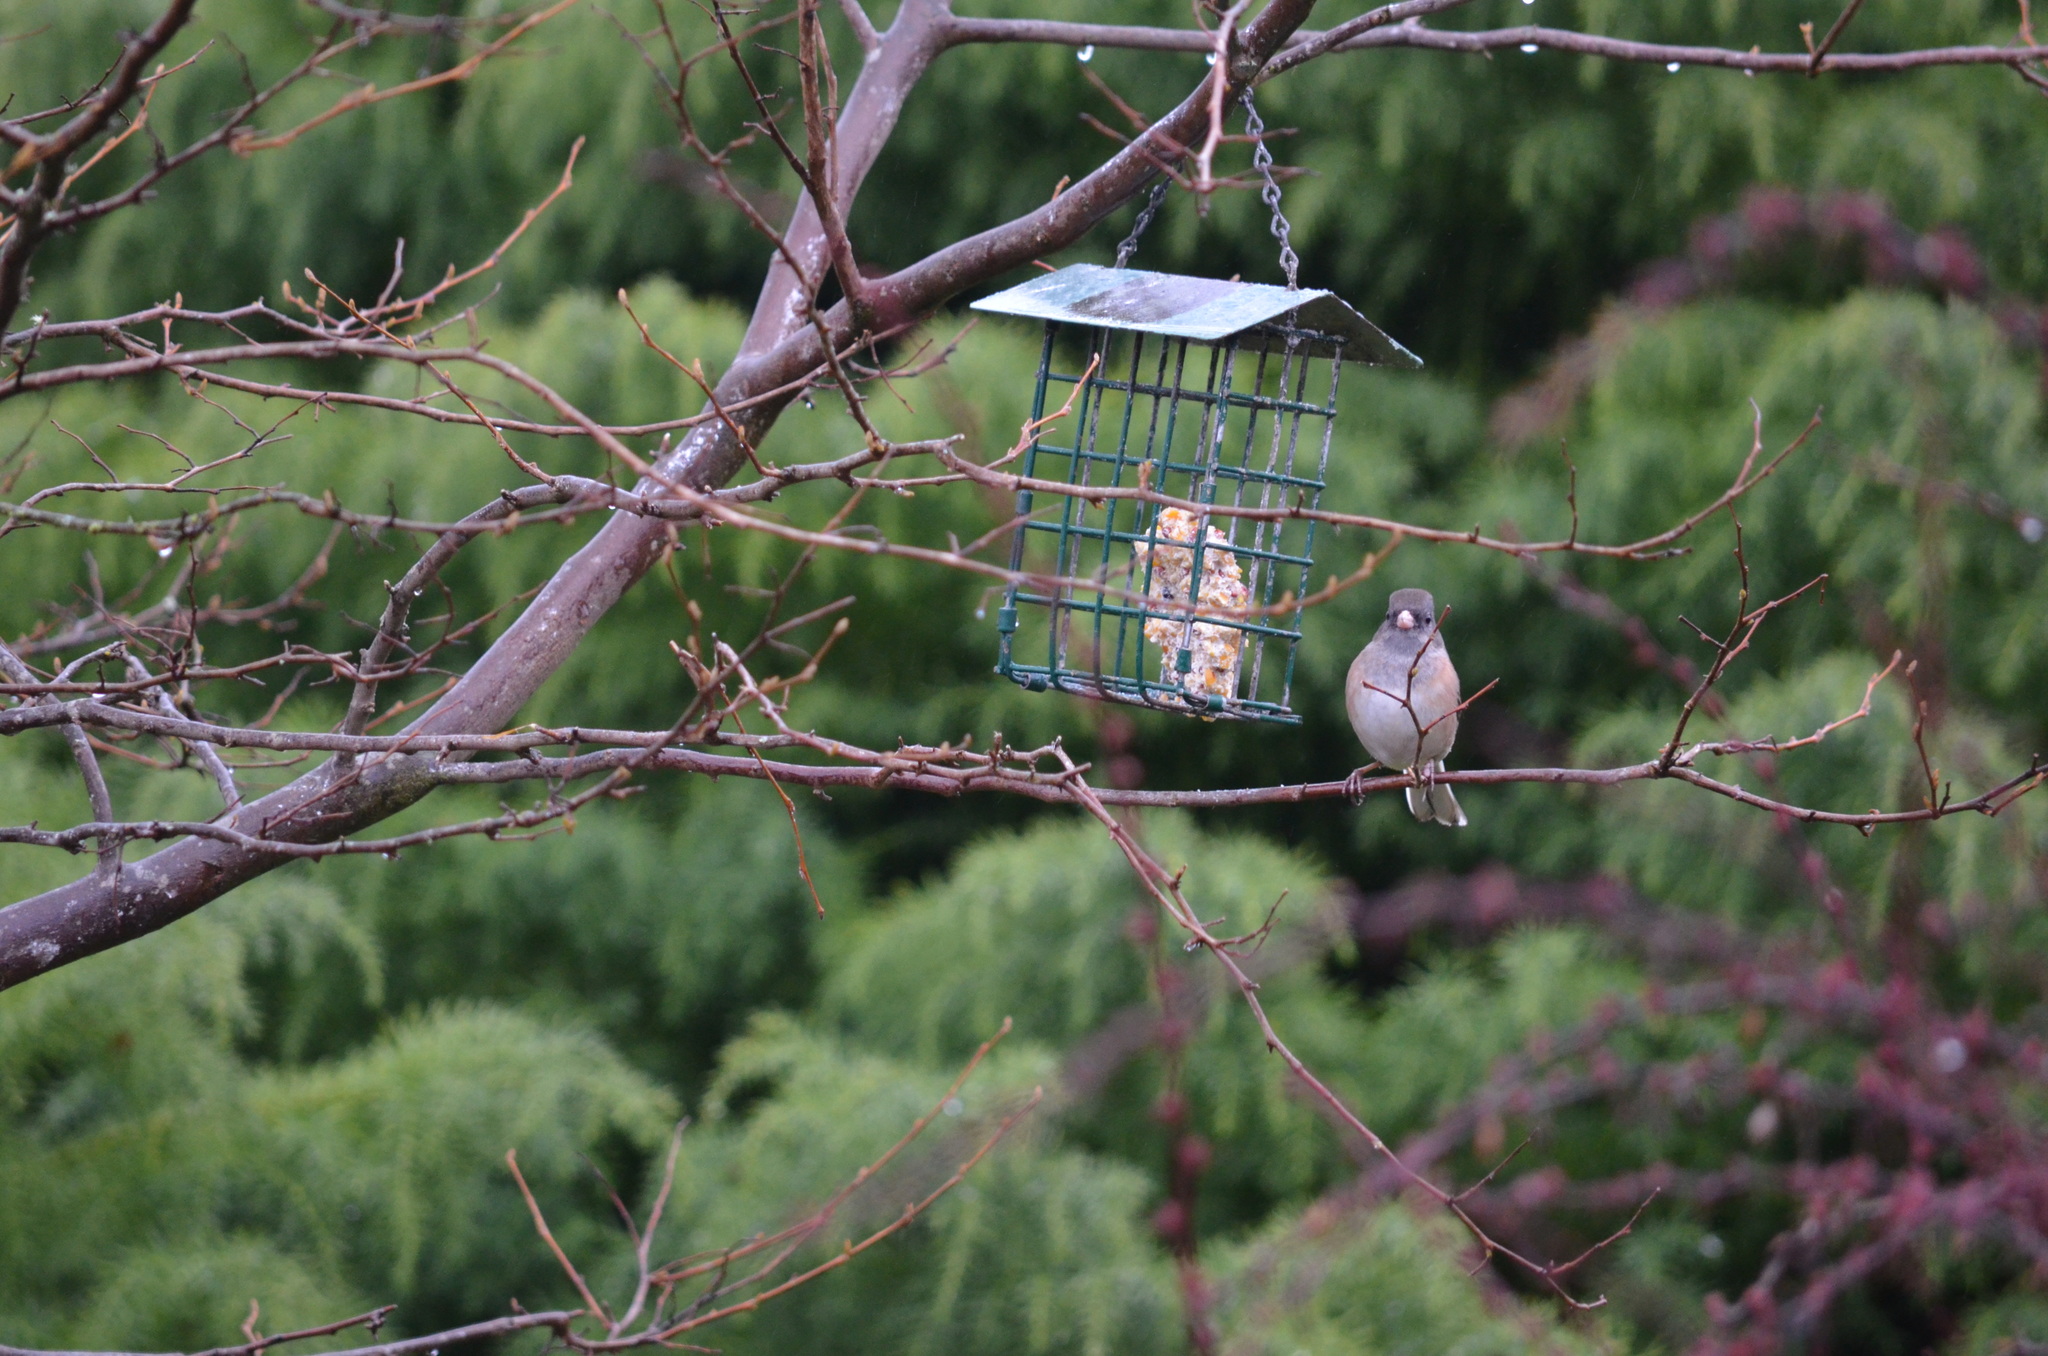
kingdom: Animalia
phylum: Chordata
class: Aves
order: Passeriformes
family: Passerellidae
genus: Junco
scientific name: Junco hyemalis
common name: Dark-eyed junco
